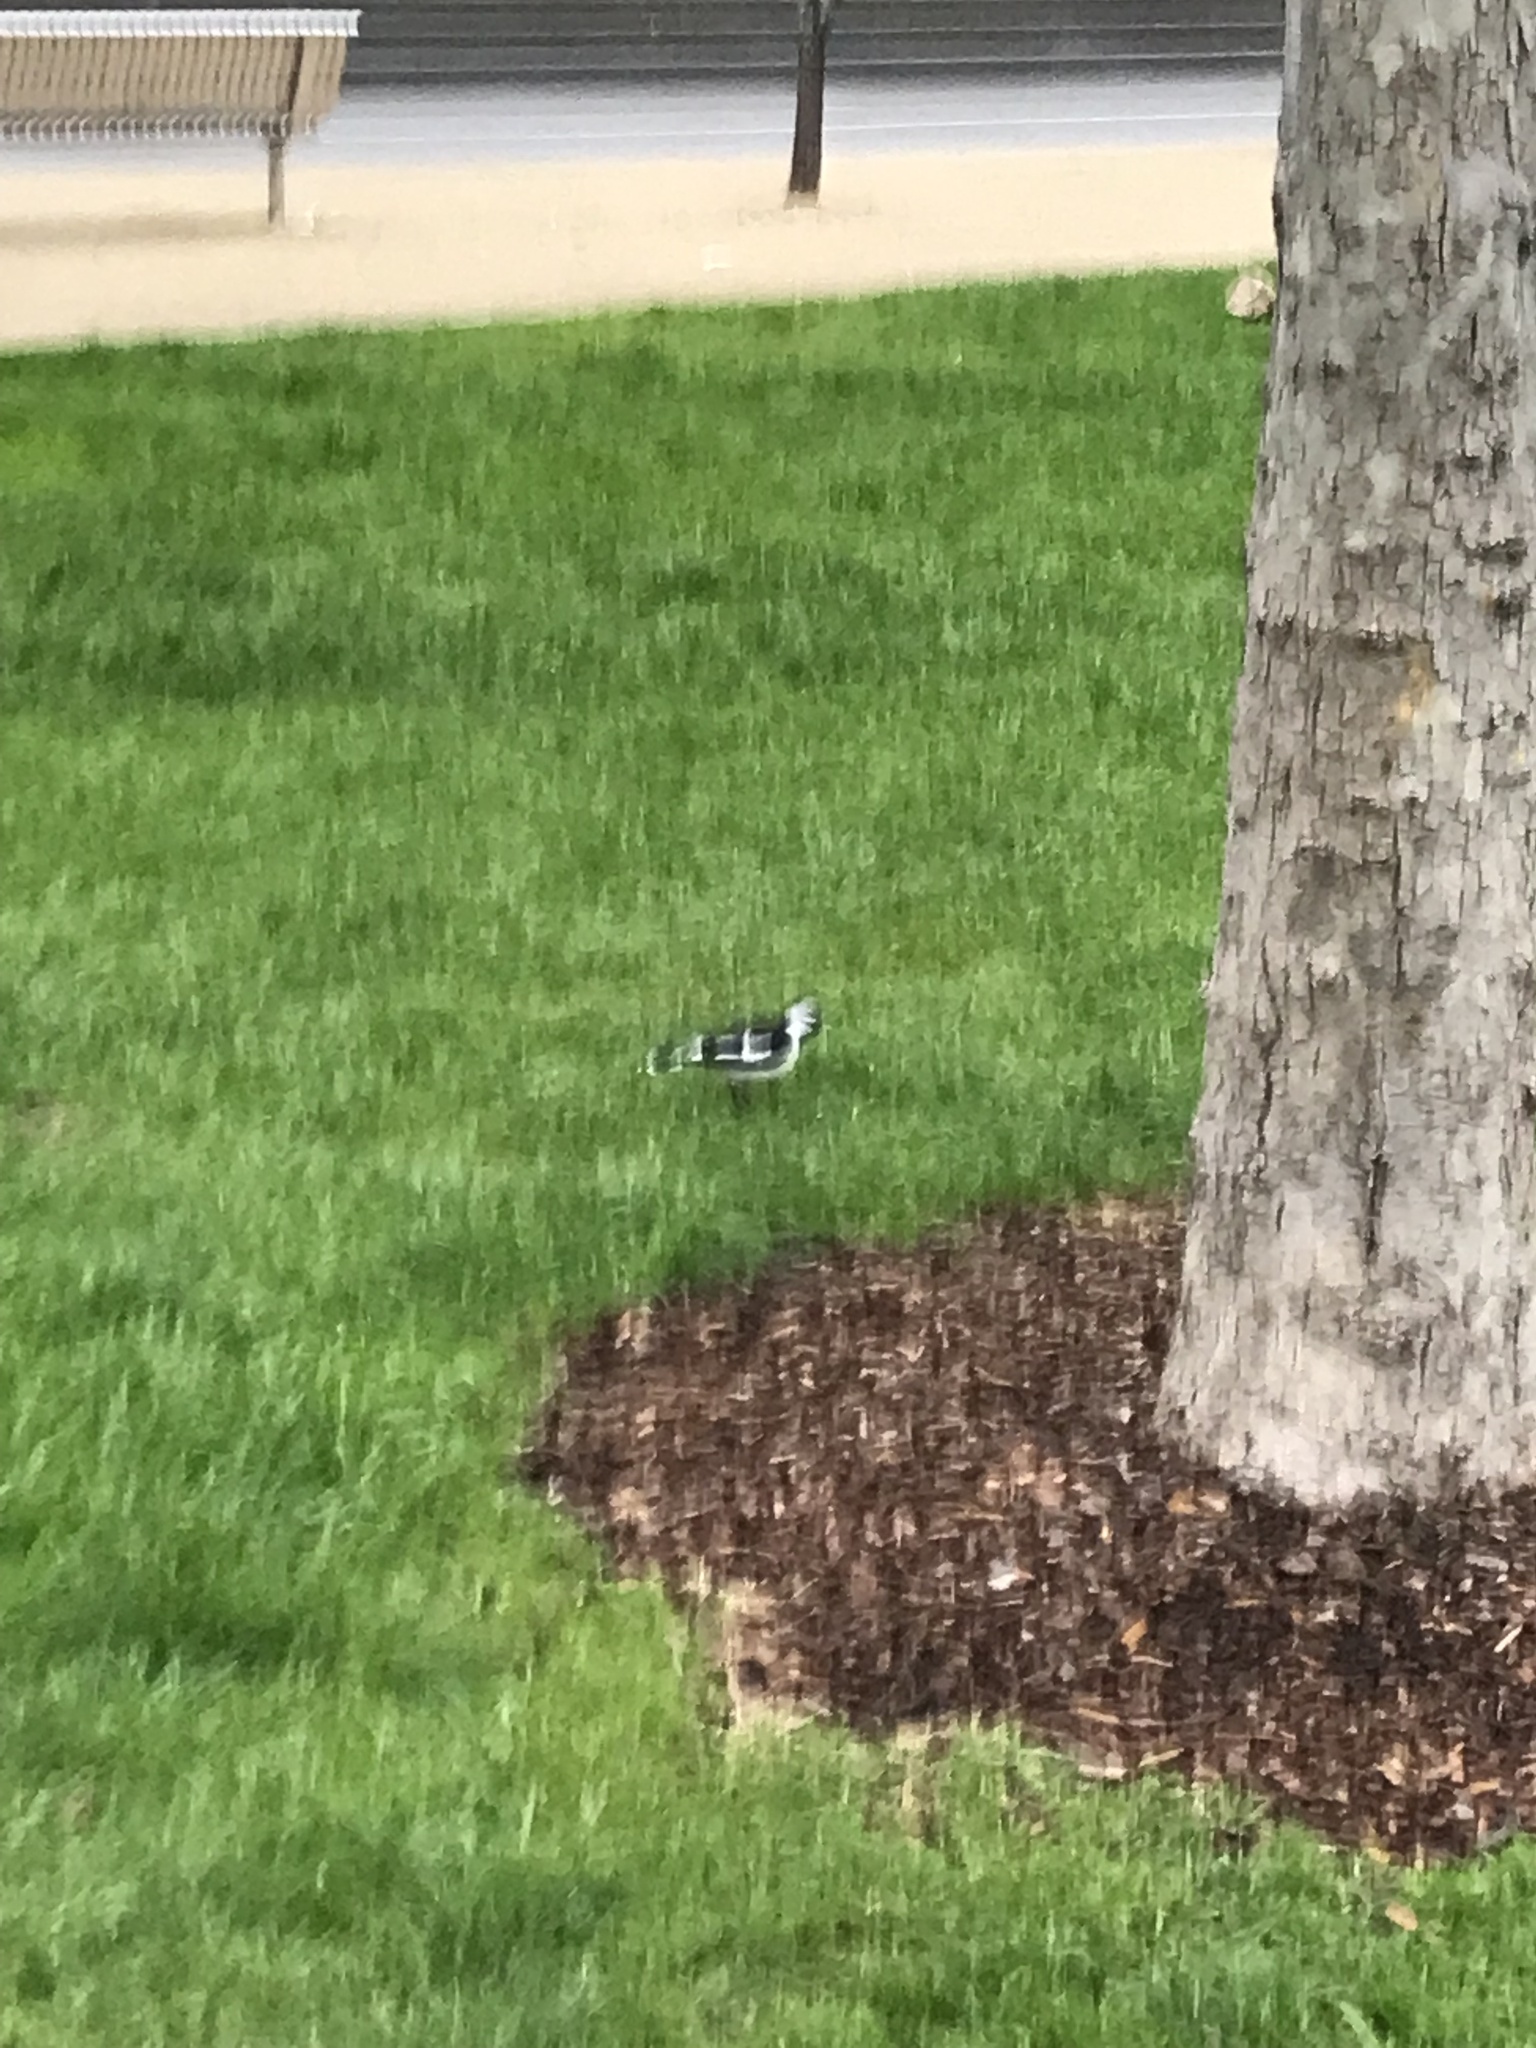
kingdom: Animalia
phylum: Chordata
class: Aves
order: Passeriformes
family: Monarchidae
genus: Grallina
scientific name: Grallina cyanoleuca
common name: Magpie-lark
